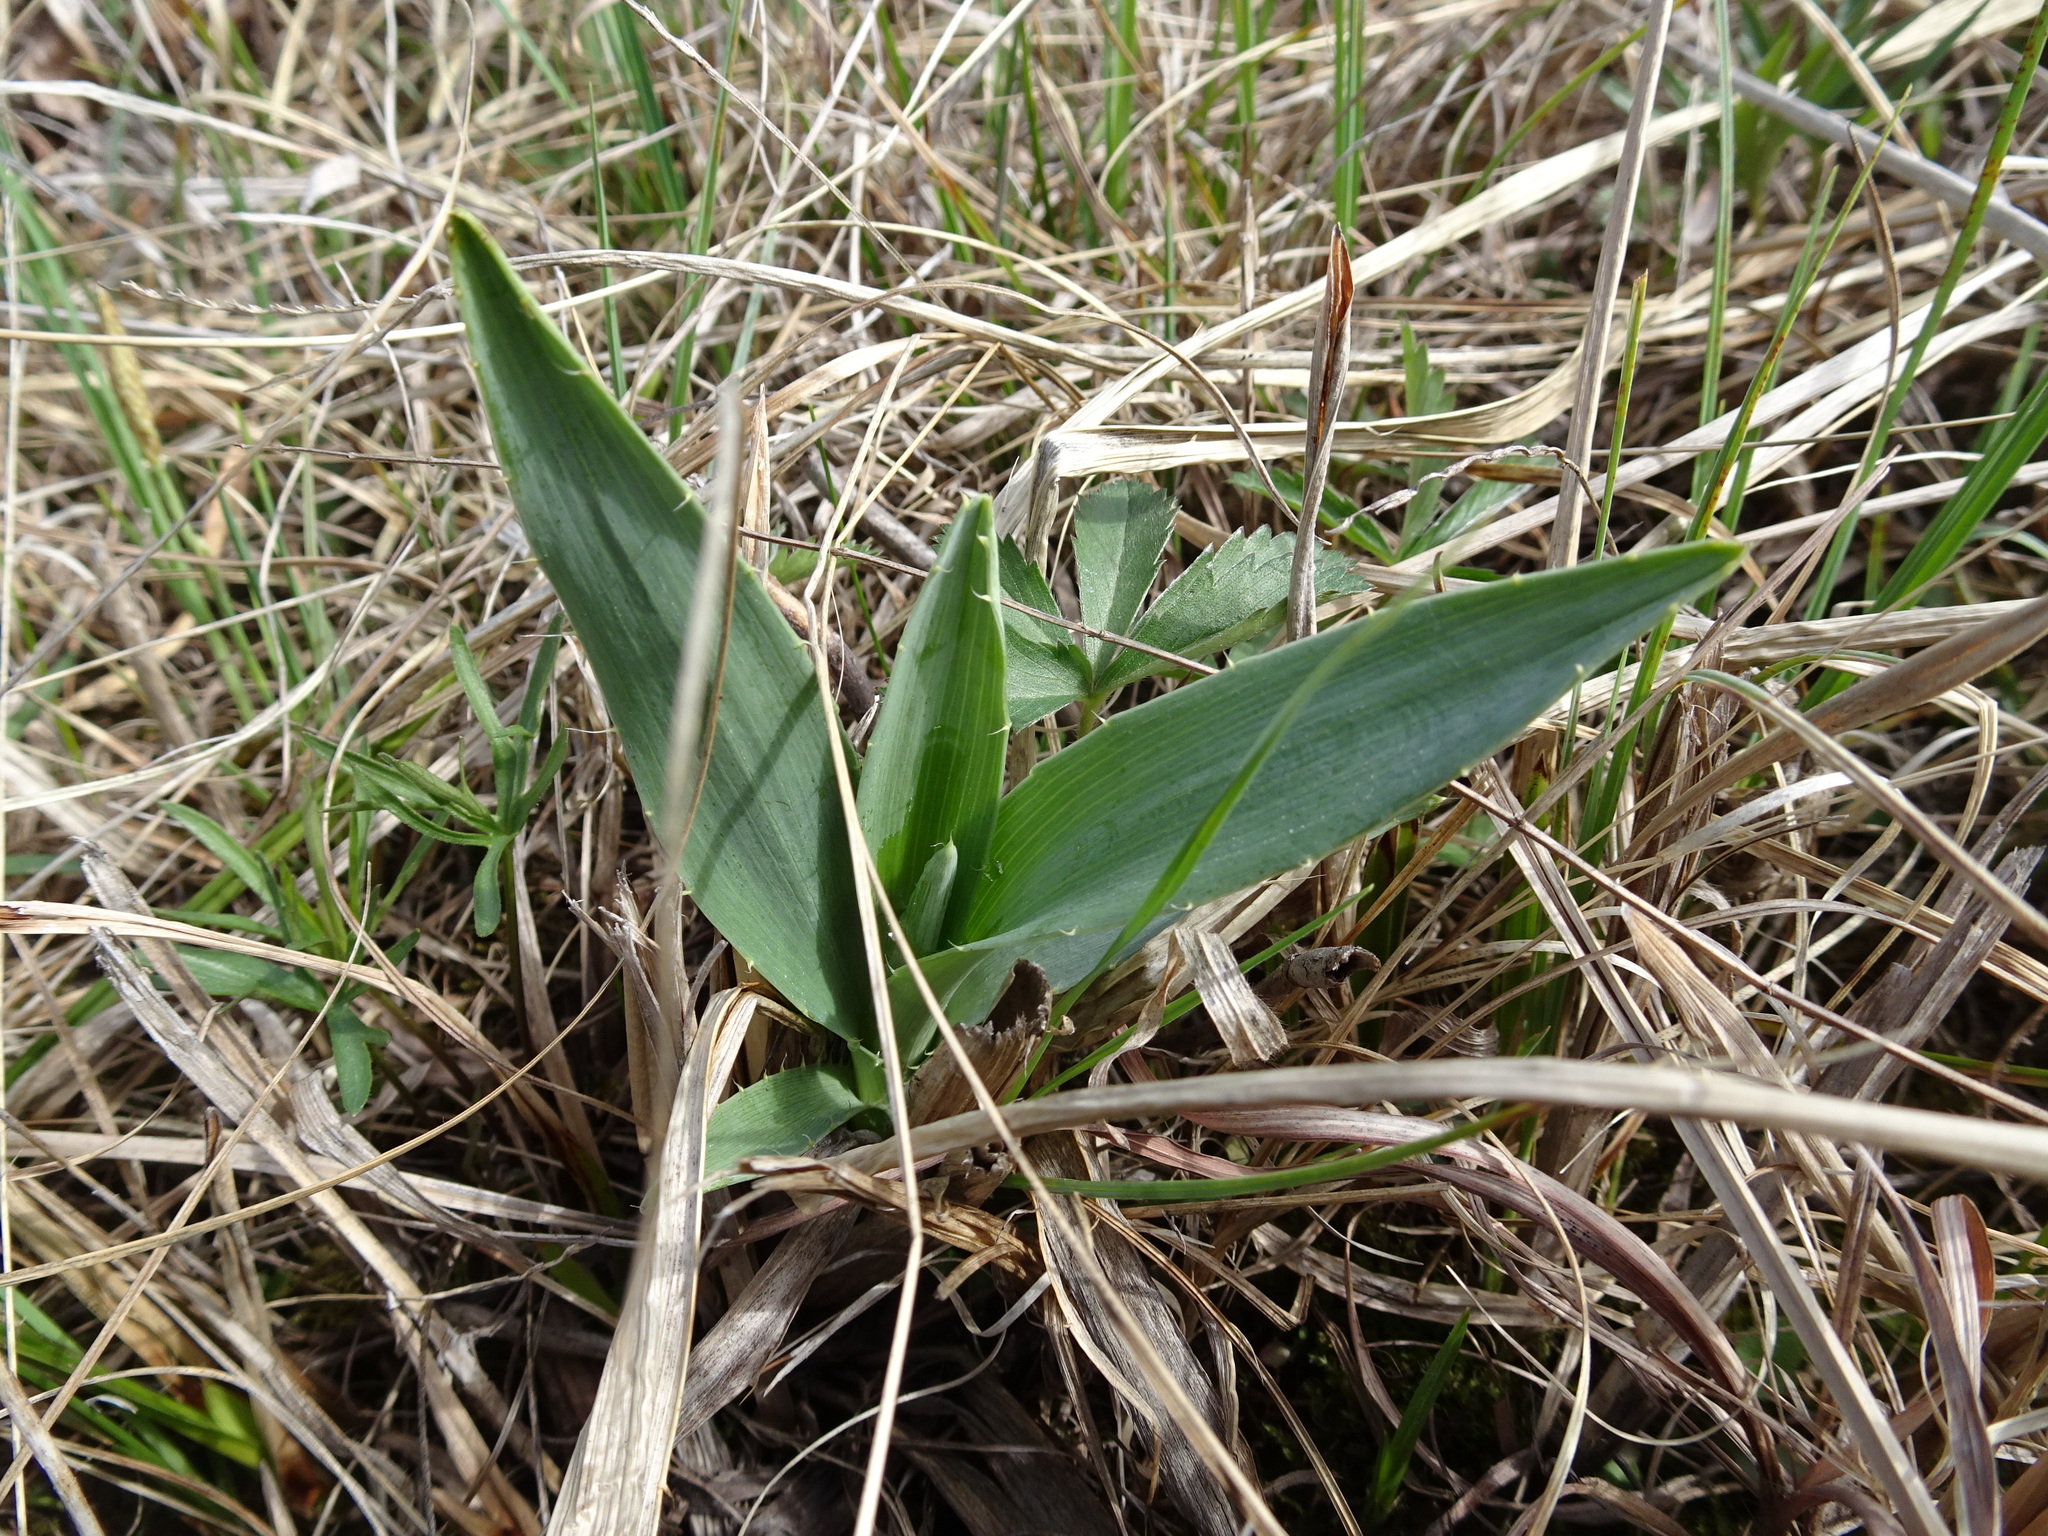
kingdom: Plantae
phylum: Tracheophyta
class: Magnoliopsida
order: Apiales
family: Apiaceae
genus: Eryngium
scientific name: Eryngium yuccifolium
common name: Button eryngo
